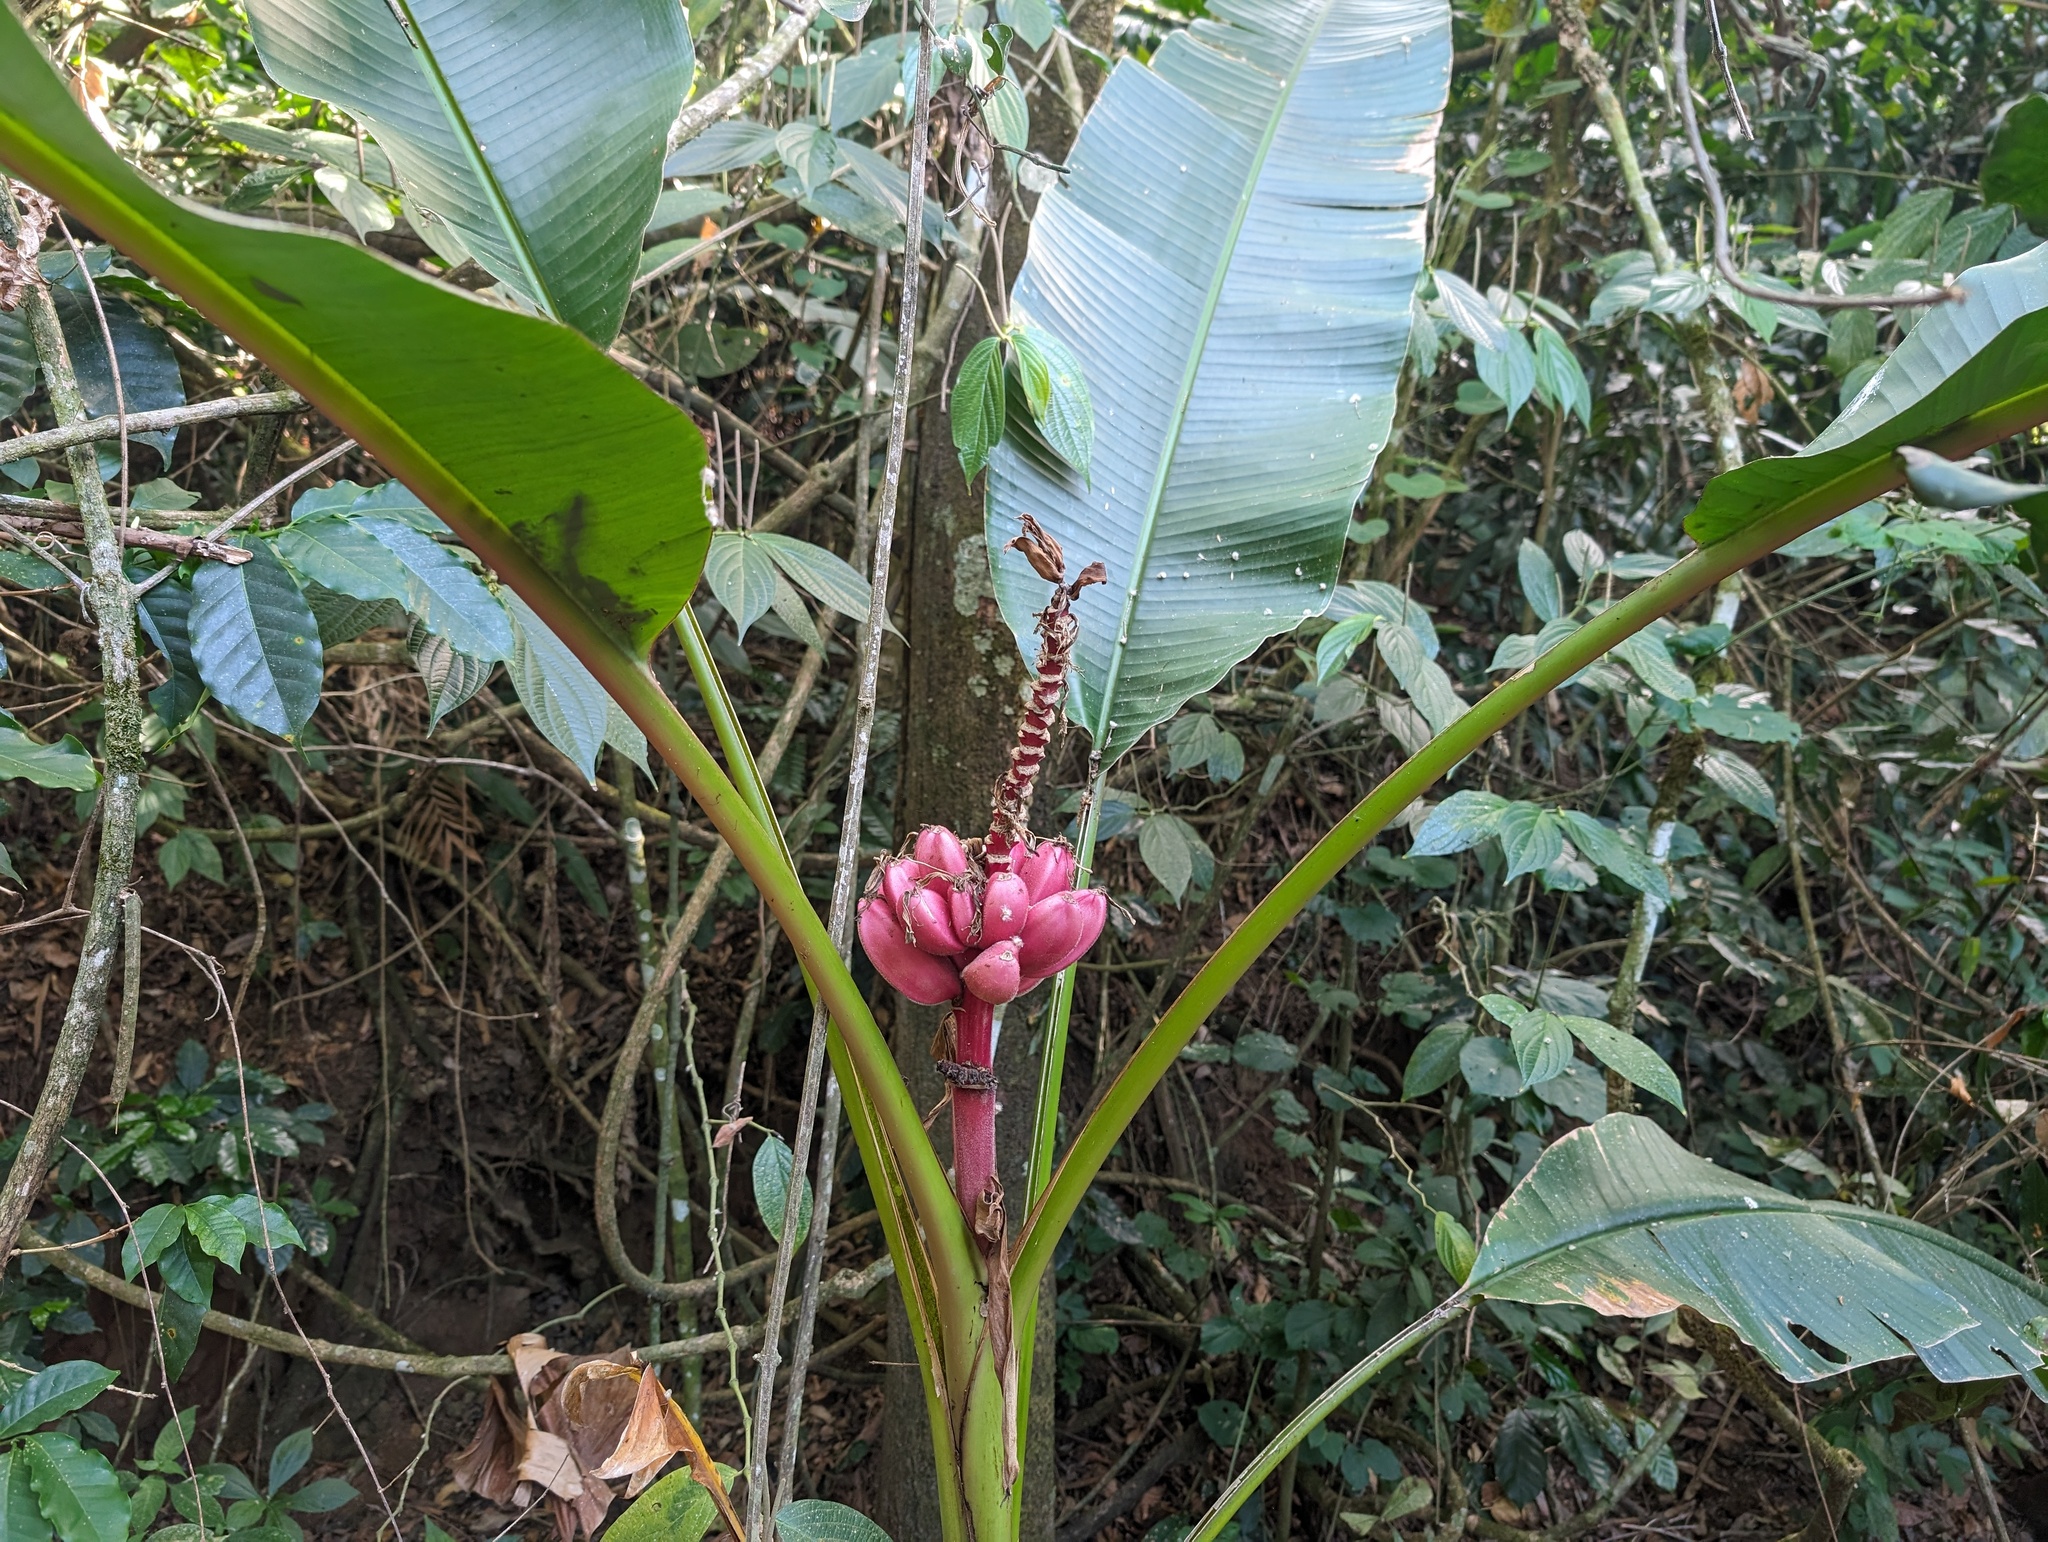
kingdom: Plantae
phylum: Tracheophyta
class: Liliopsida
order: Zingiberales
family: Musaceae
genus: Musa
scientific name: Musa velutina
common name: Pink velvet banana
